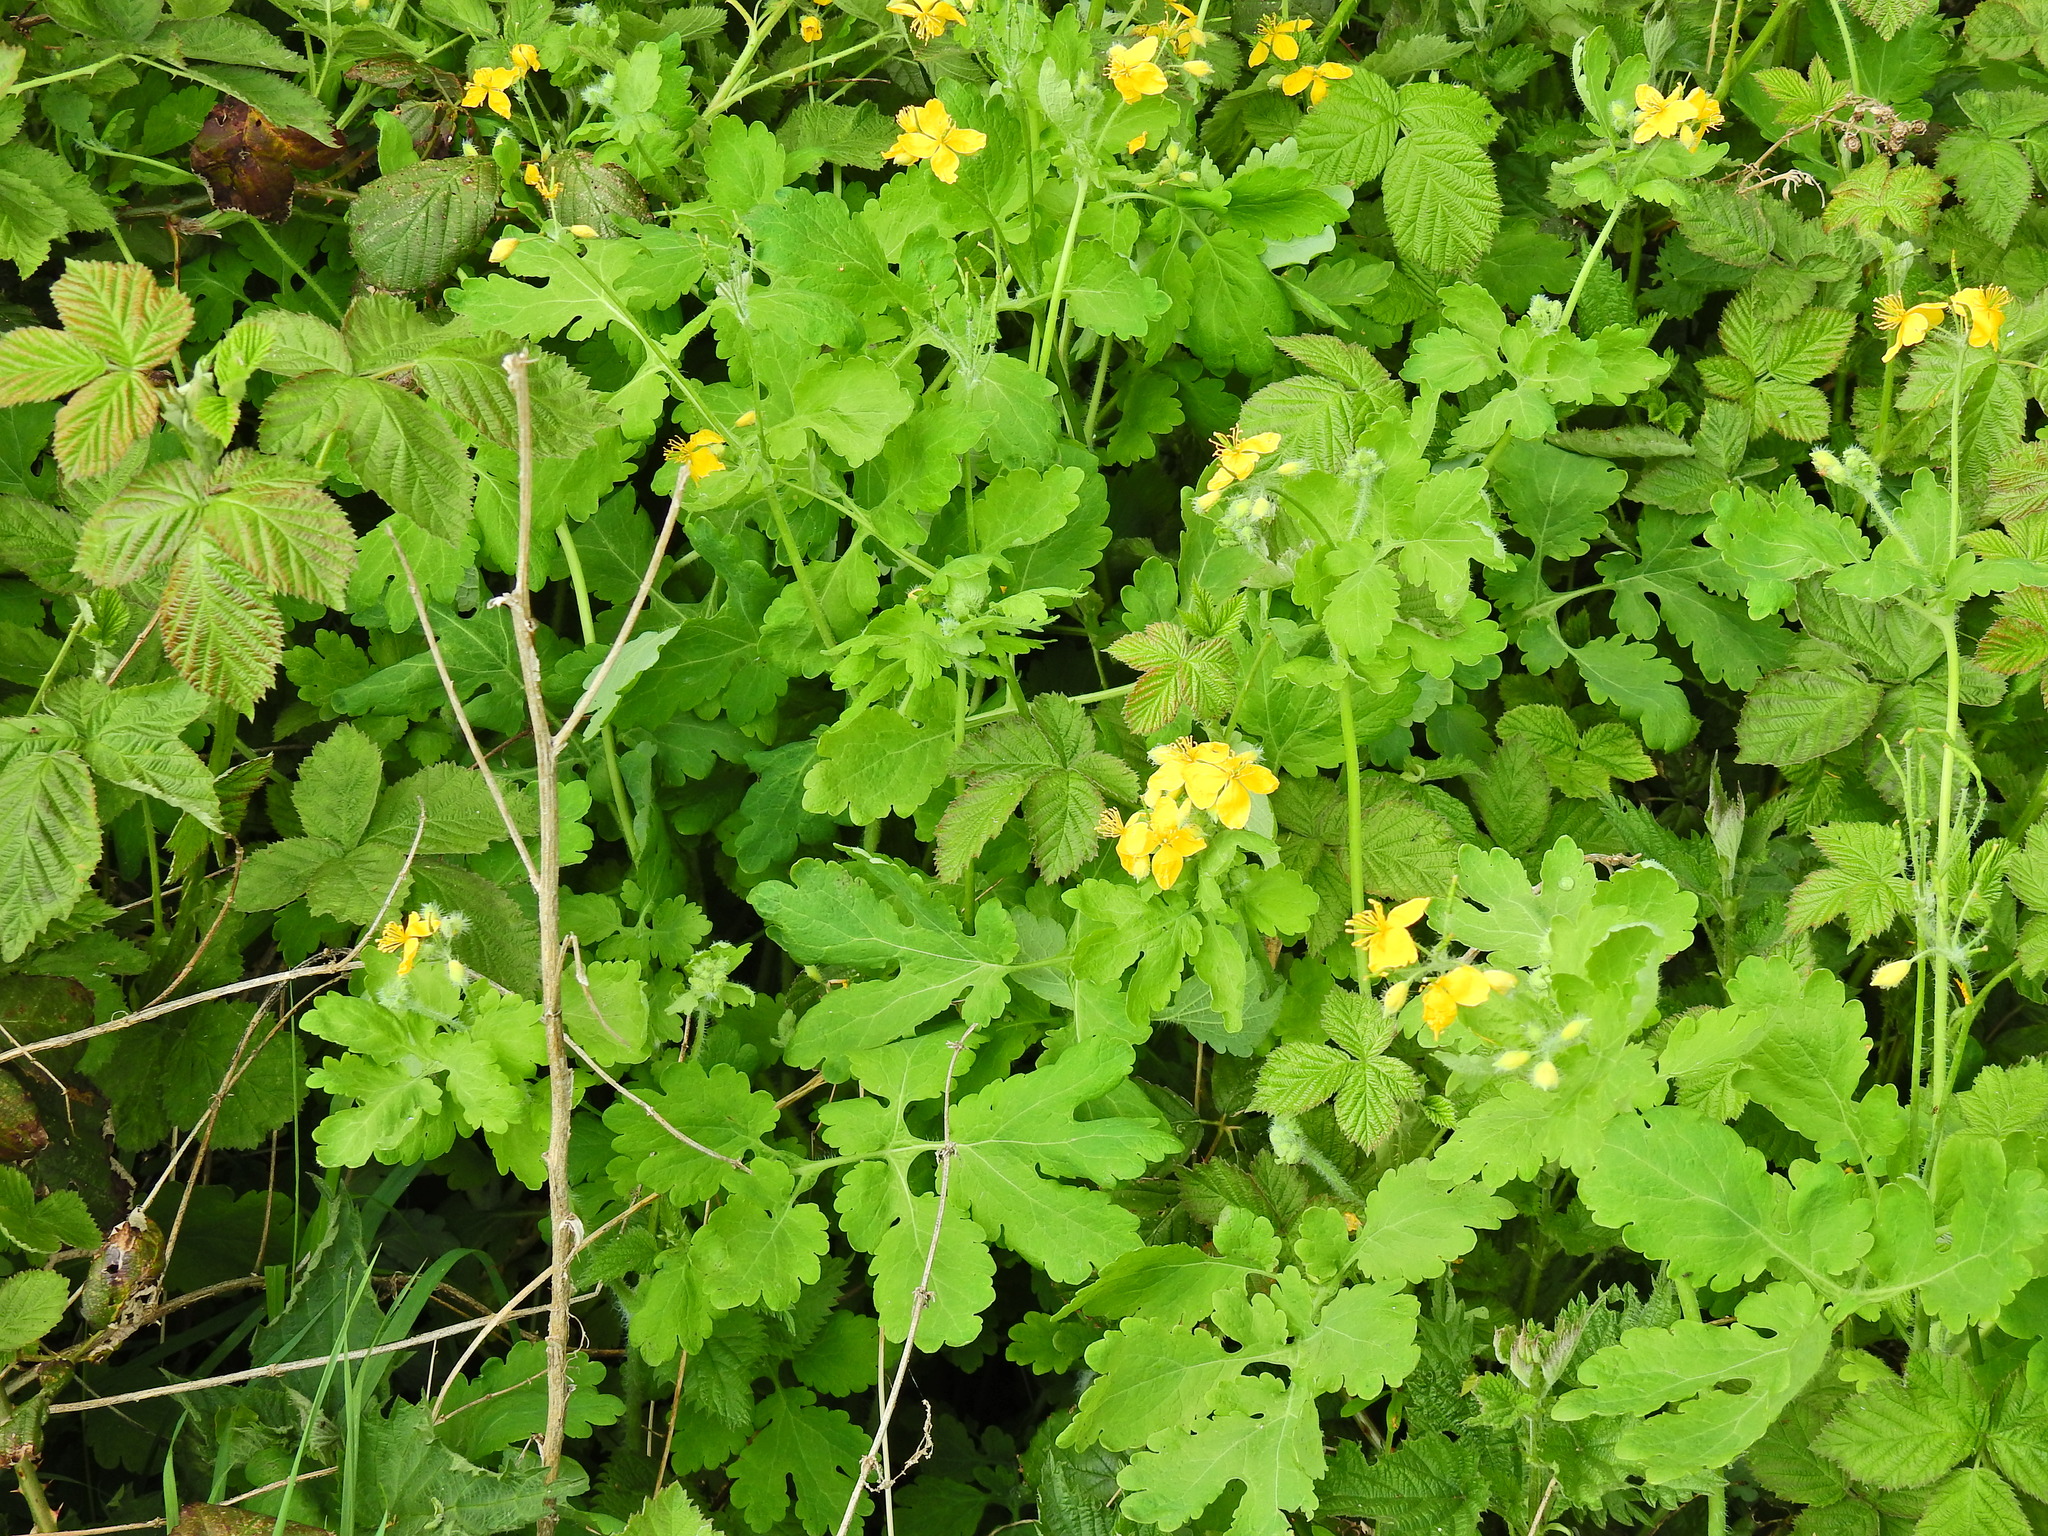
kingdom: Plantae
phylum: Tracheophyta
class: Magnoliopsida
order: Ranunculales
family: Papaveraceae
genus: Chelidonium
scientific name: Chelidonium majus
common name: Greater celandine
